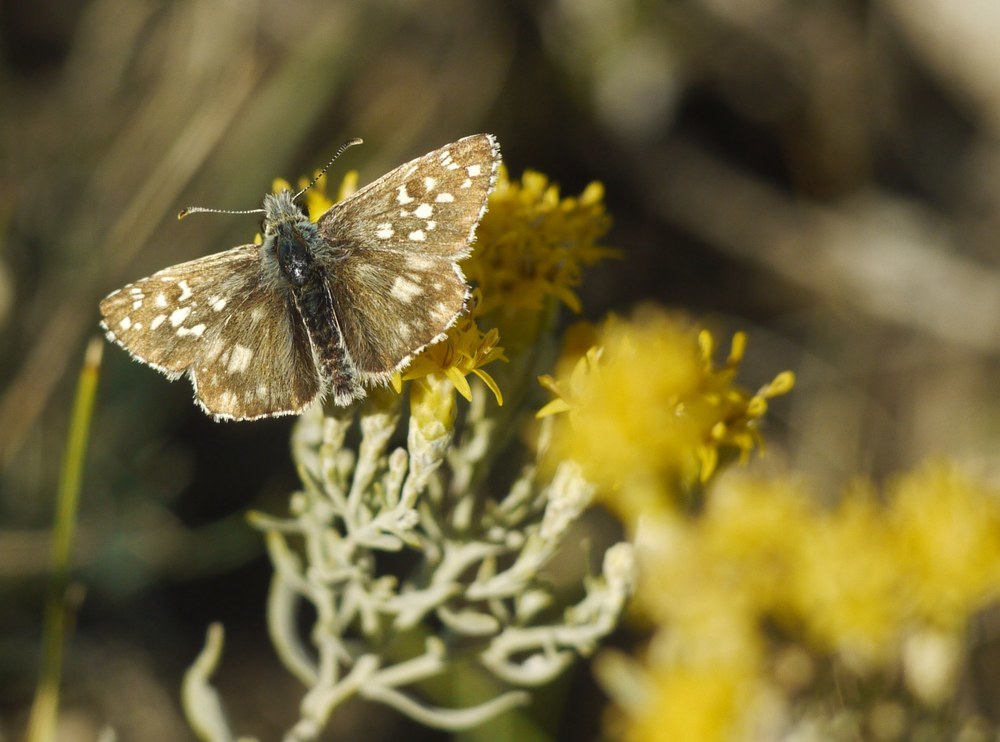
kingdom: Animalia
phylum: Arthropoda
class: Insecta
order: Lepidoptera
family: Hesperiidae
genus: Pyrgus
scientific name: Pyrgus armoricanus
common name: Oberthür's grizzled skipper
